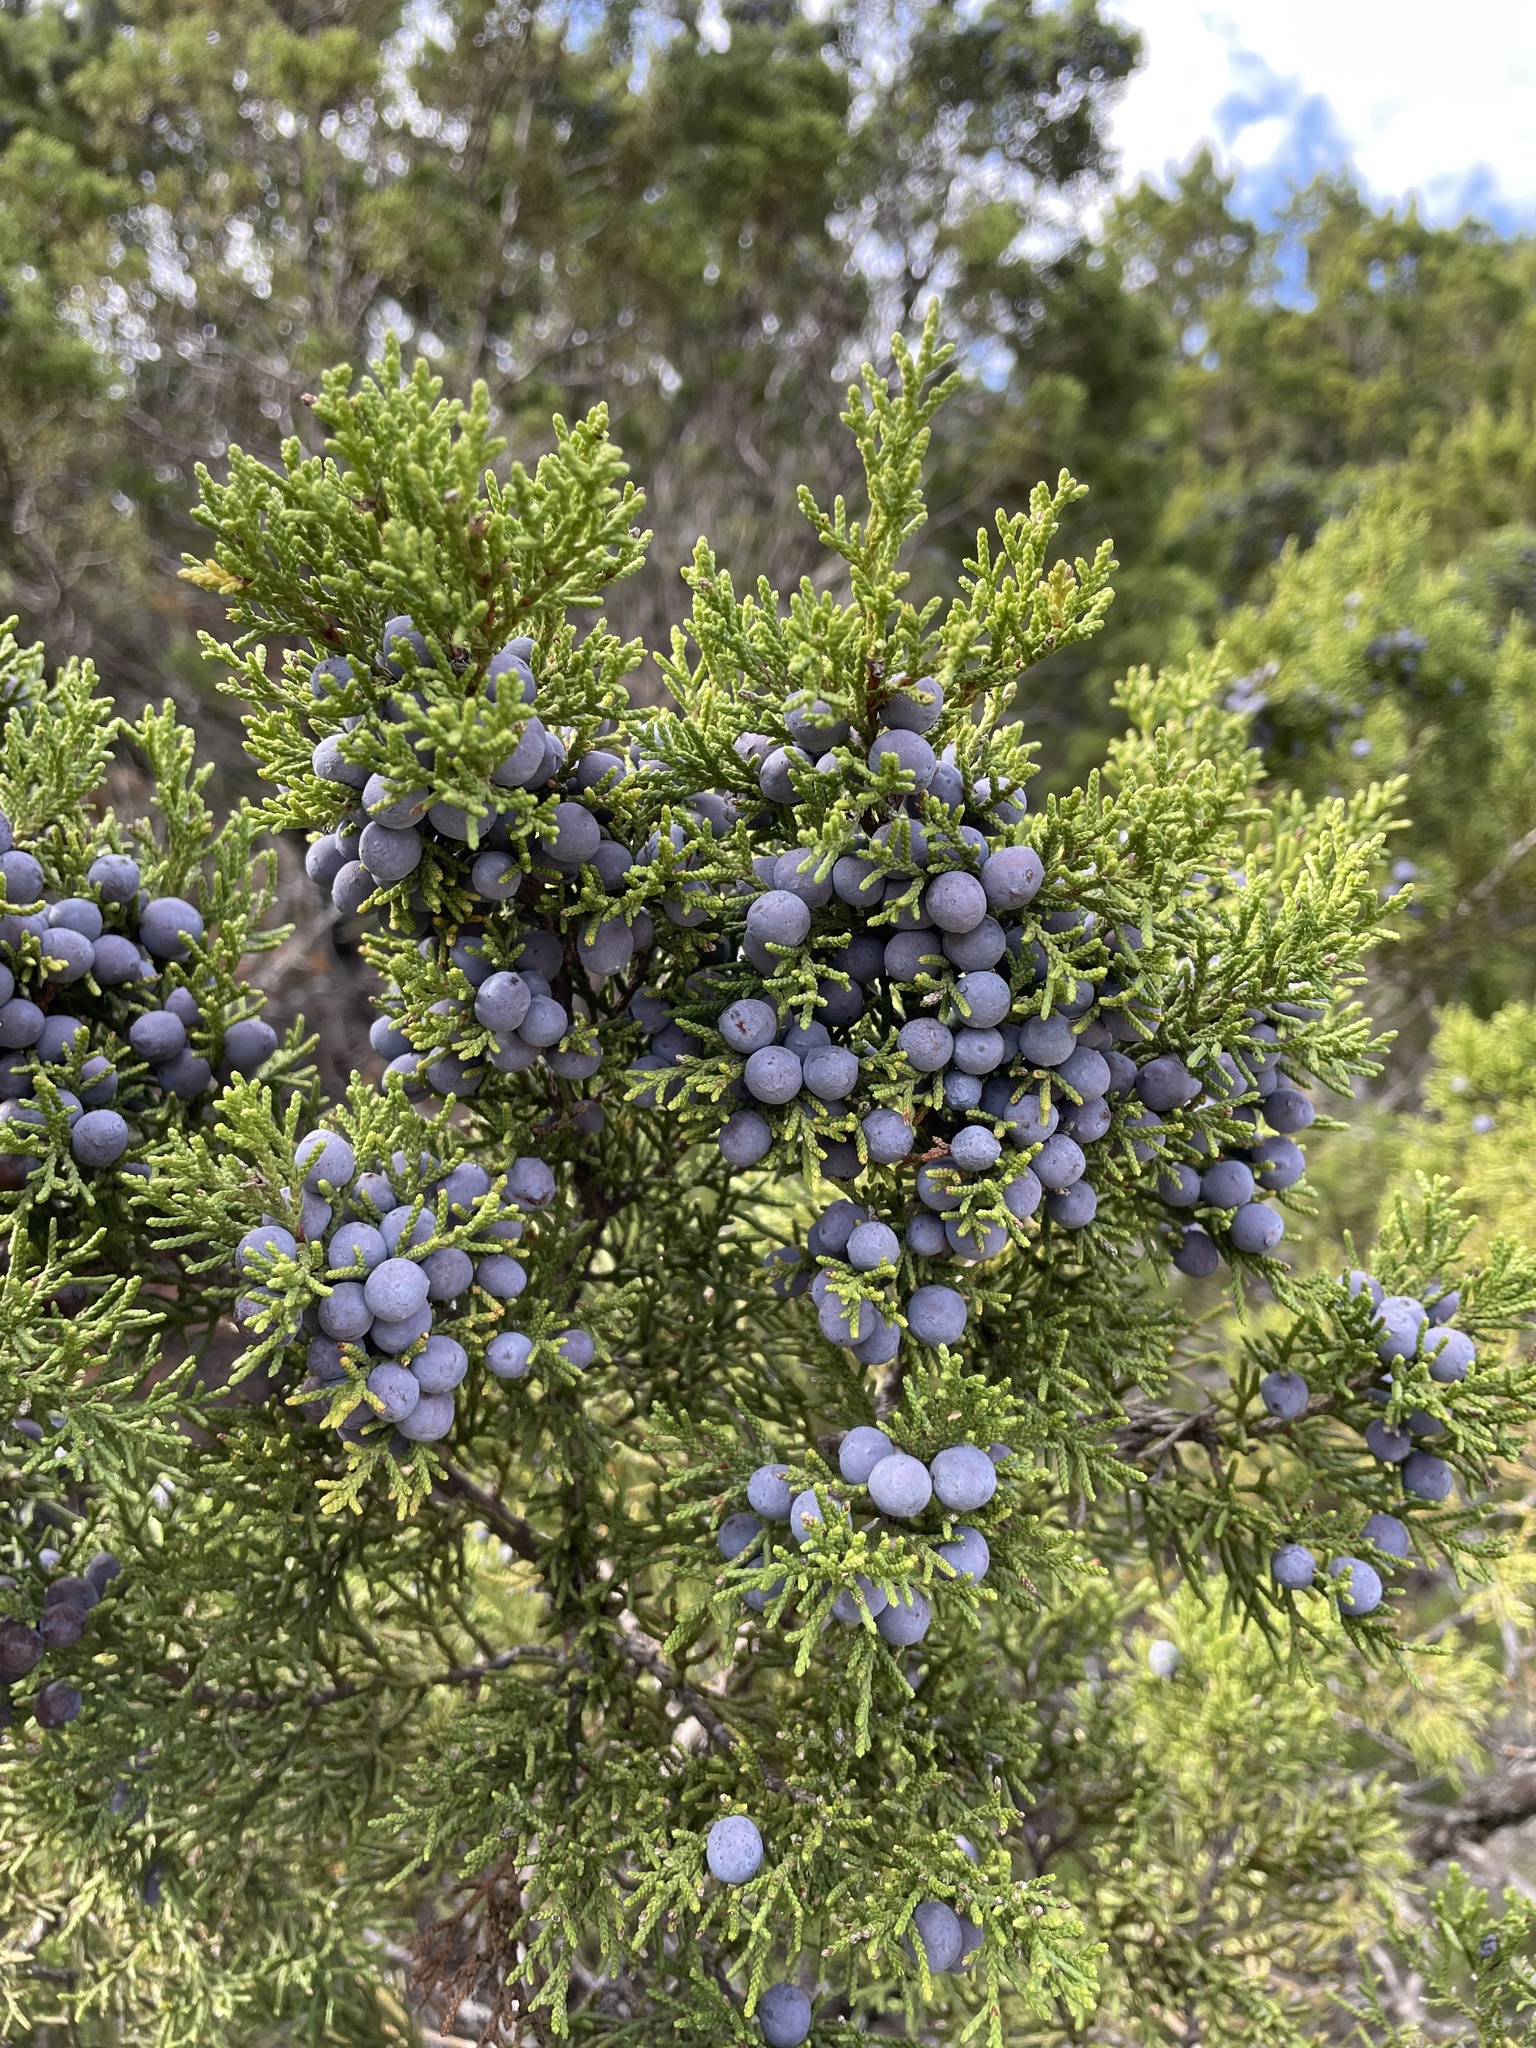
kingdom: Plantae
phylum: Tracheophyta
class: Pinopsida
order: Pinales
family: Cupressaceae
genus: Juniperus
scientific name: Juniperus ashei
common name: Mexican juniper
